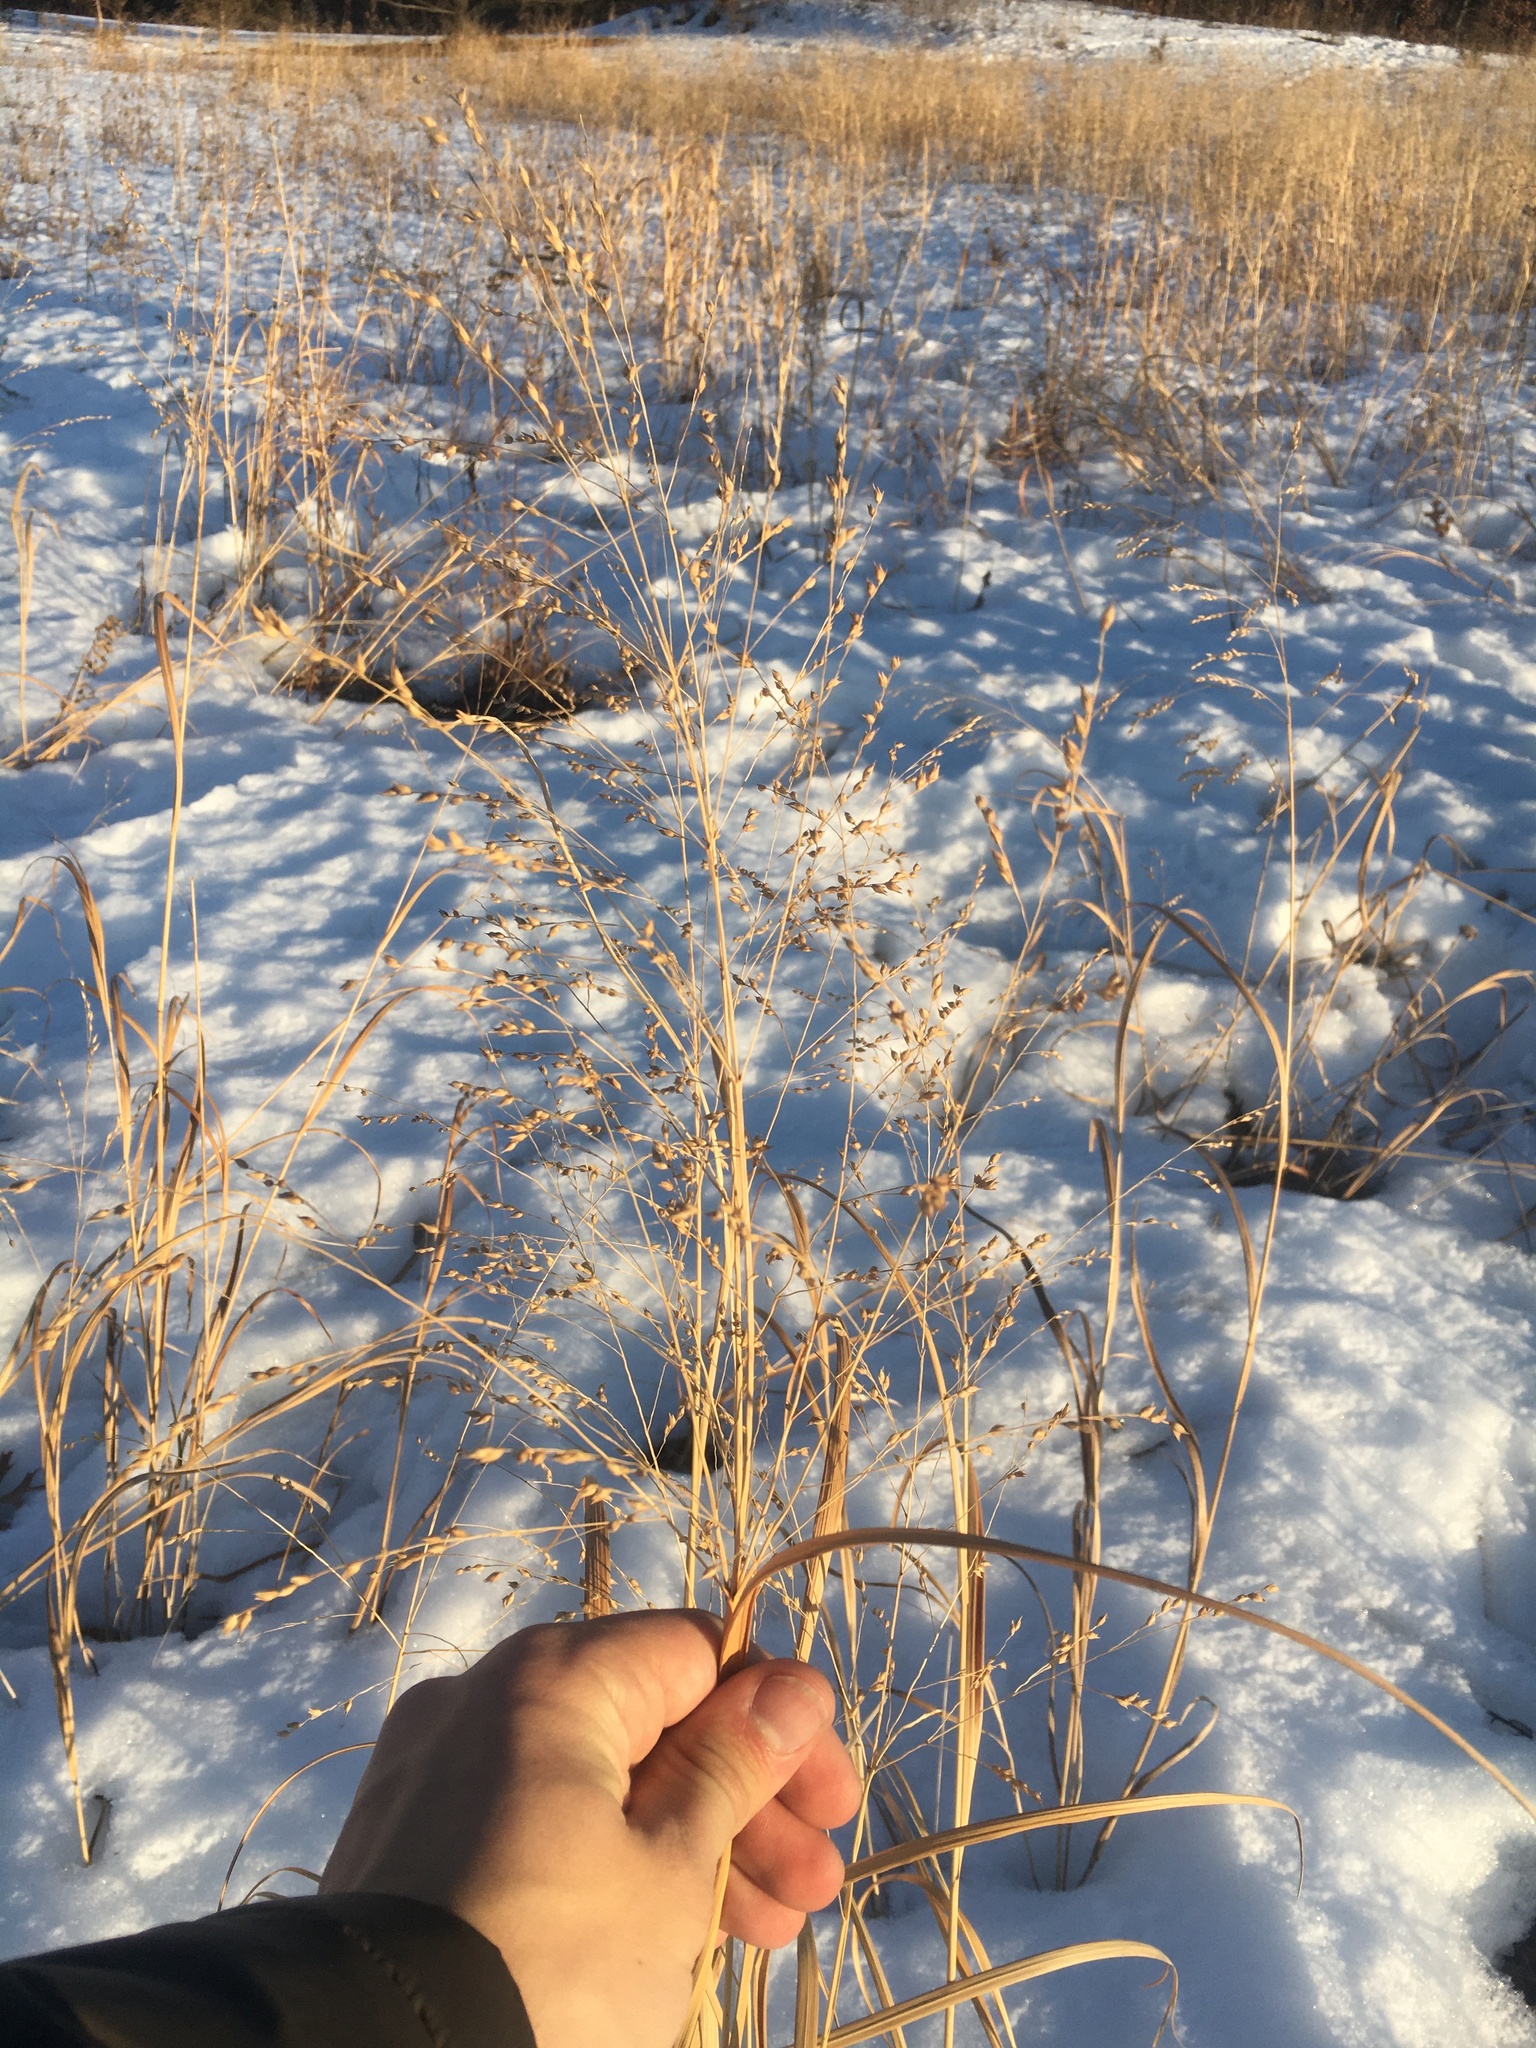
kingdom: Plantae
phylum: Tracheophyta
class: Liliopsida
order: Poales
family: Poaceae
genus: Panicum
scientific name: Panicum virgatum
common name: Switchgrass
